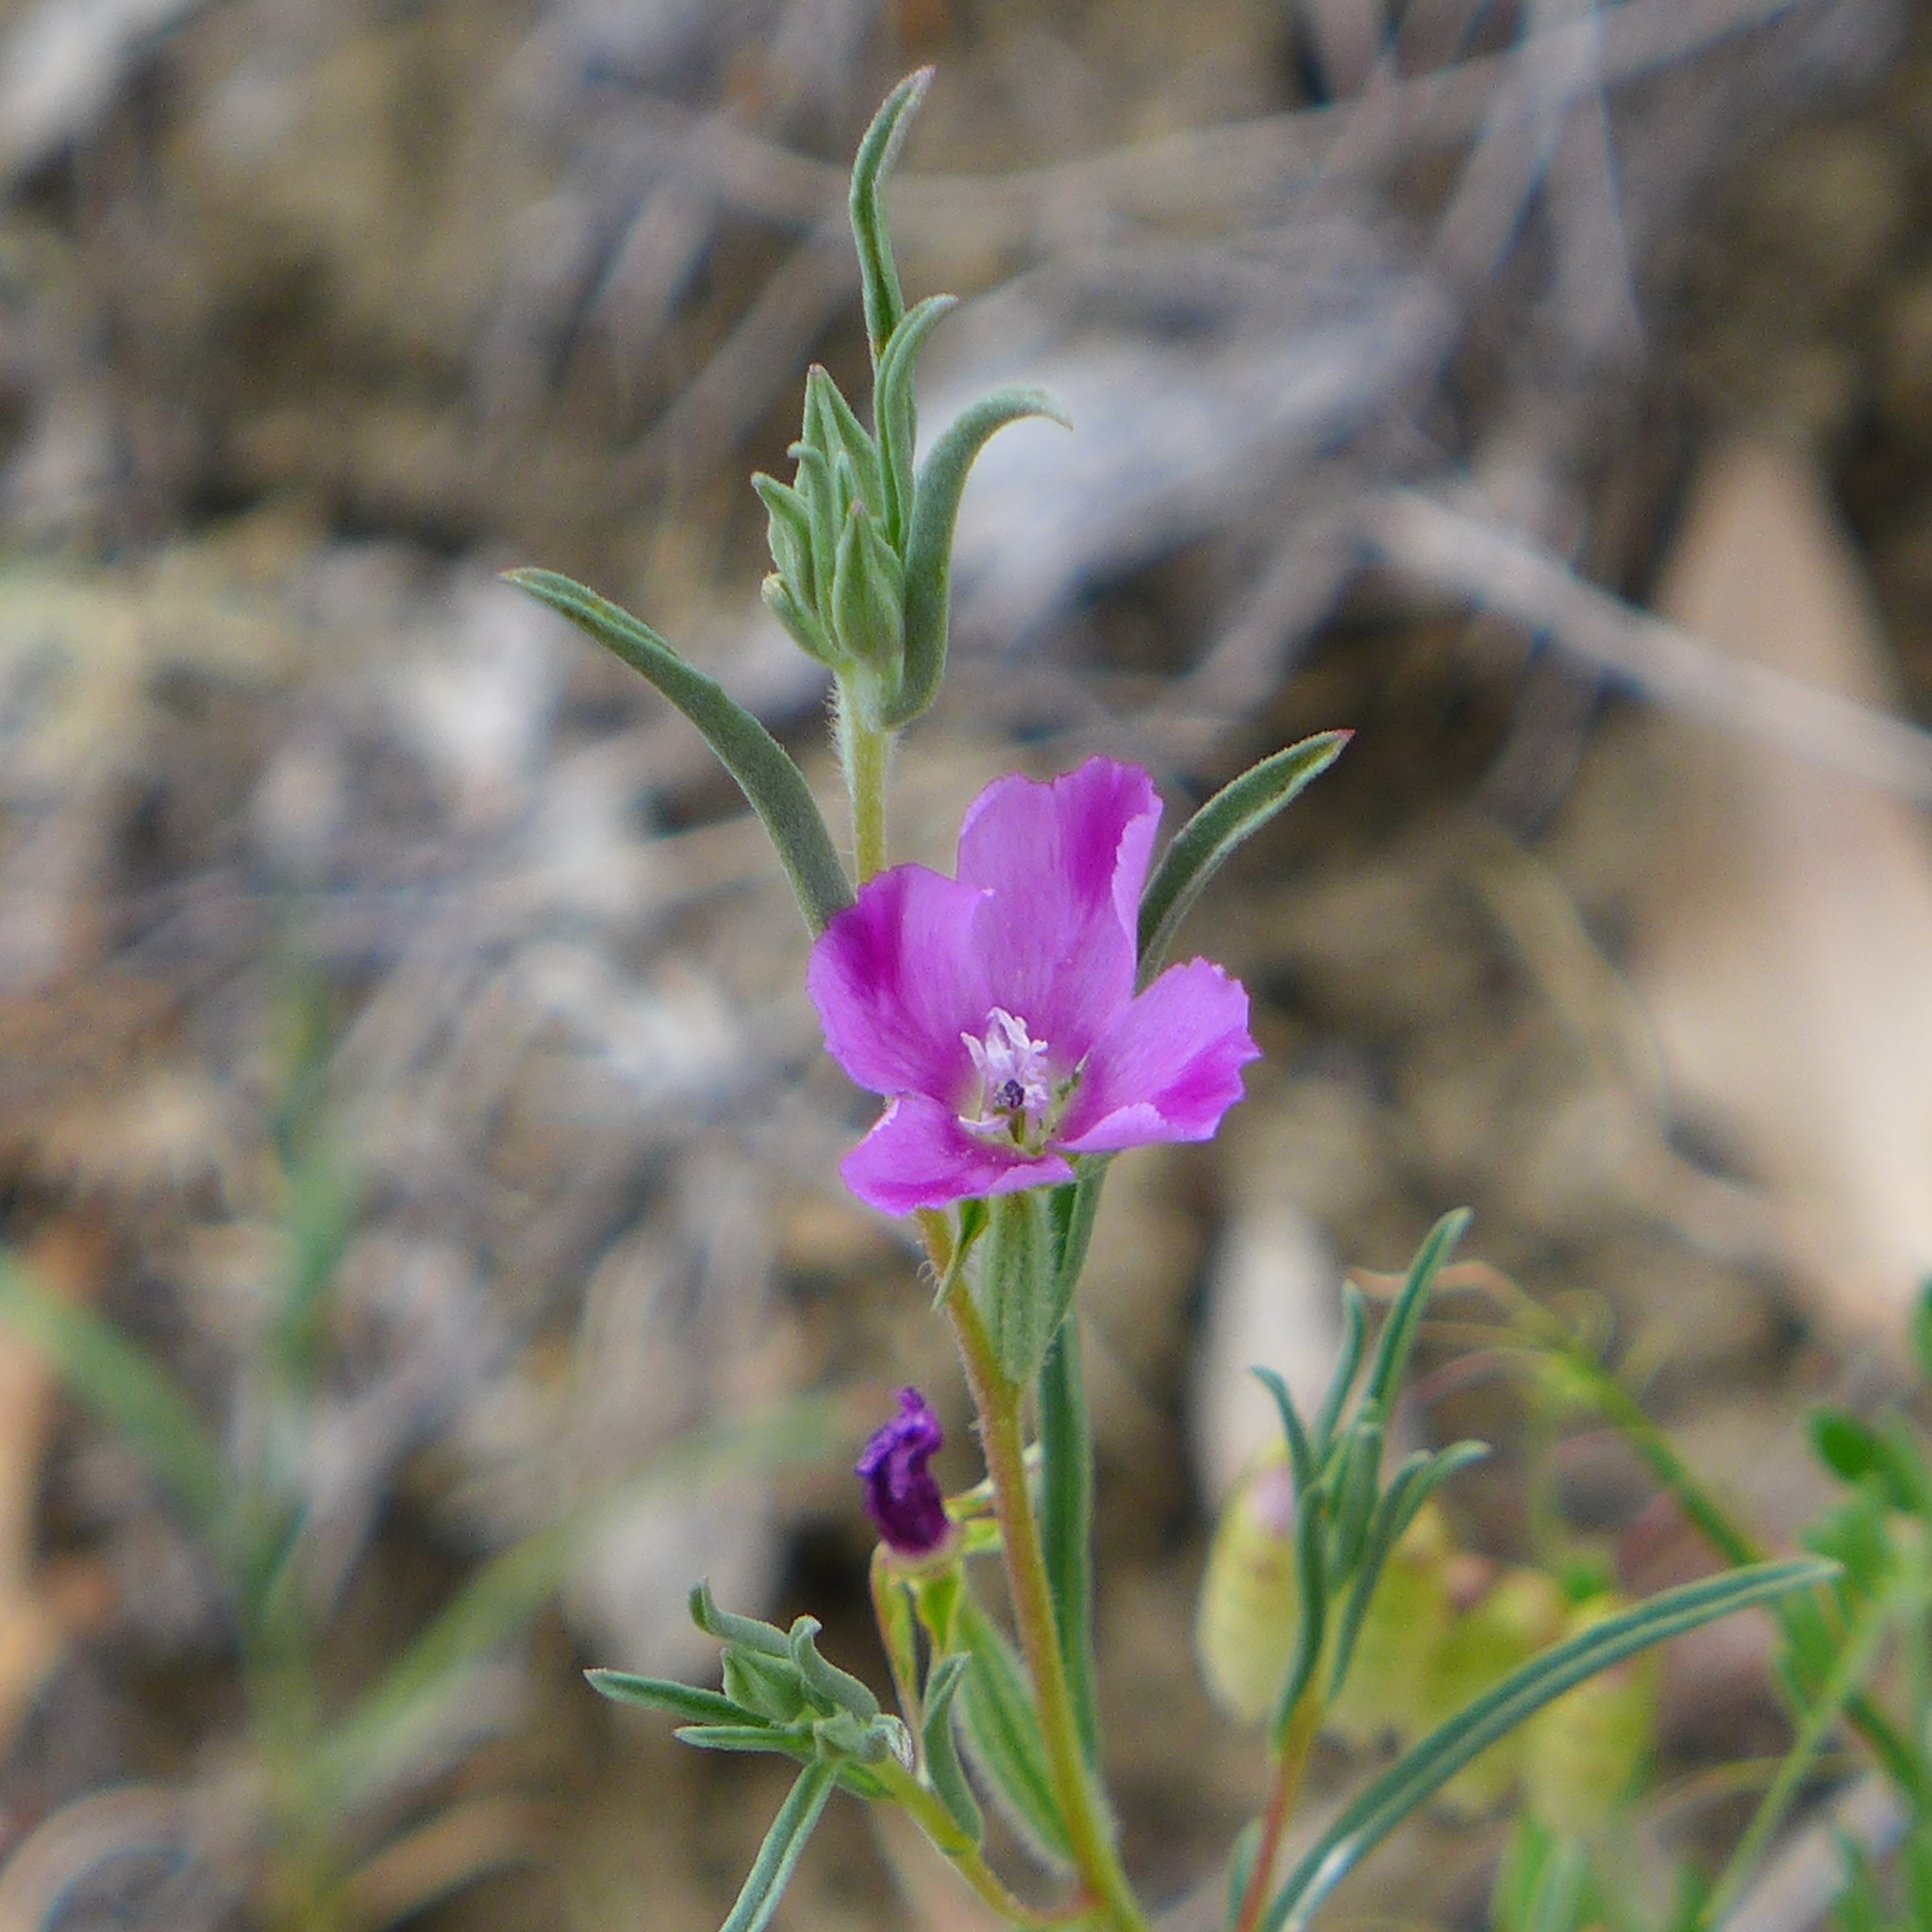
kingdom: Plantae
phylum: Tracheophyta
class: Magnoliopsida
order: Myrtales
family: Onagraceae
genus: Clarkia
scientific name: Clarkia purpurea
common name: Purple clarkia
